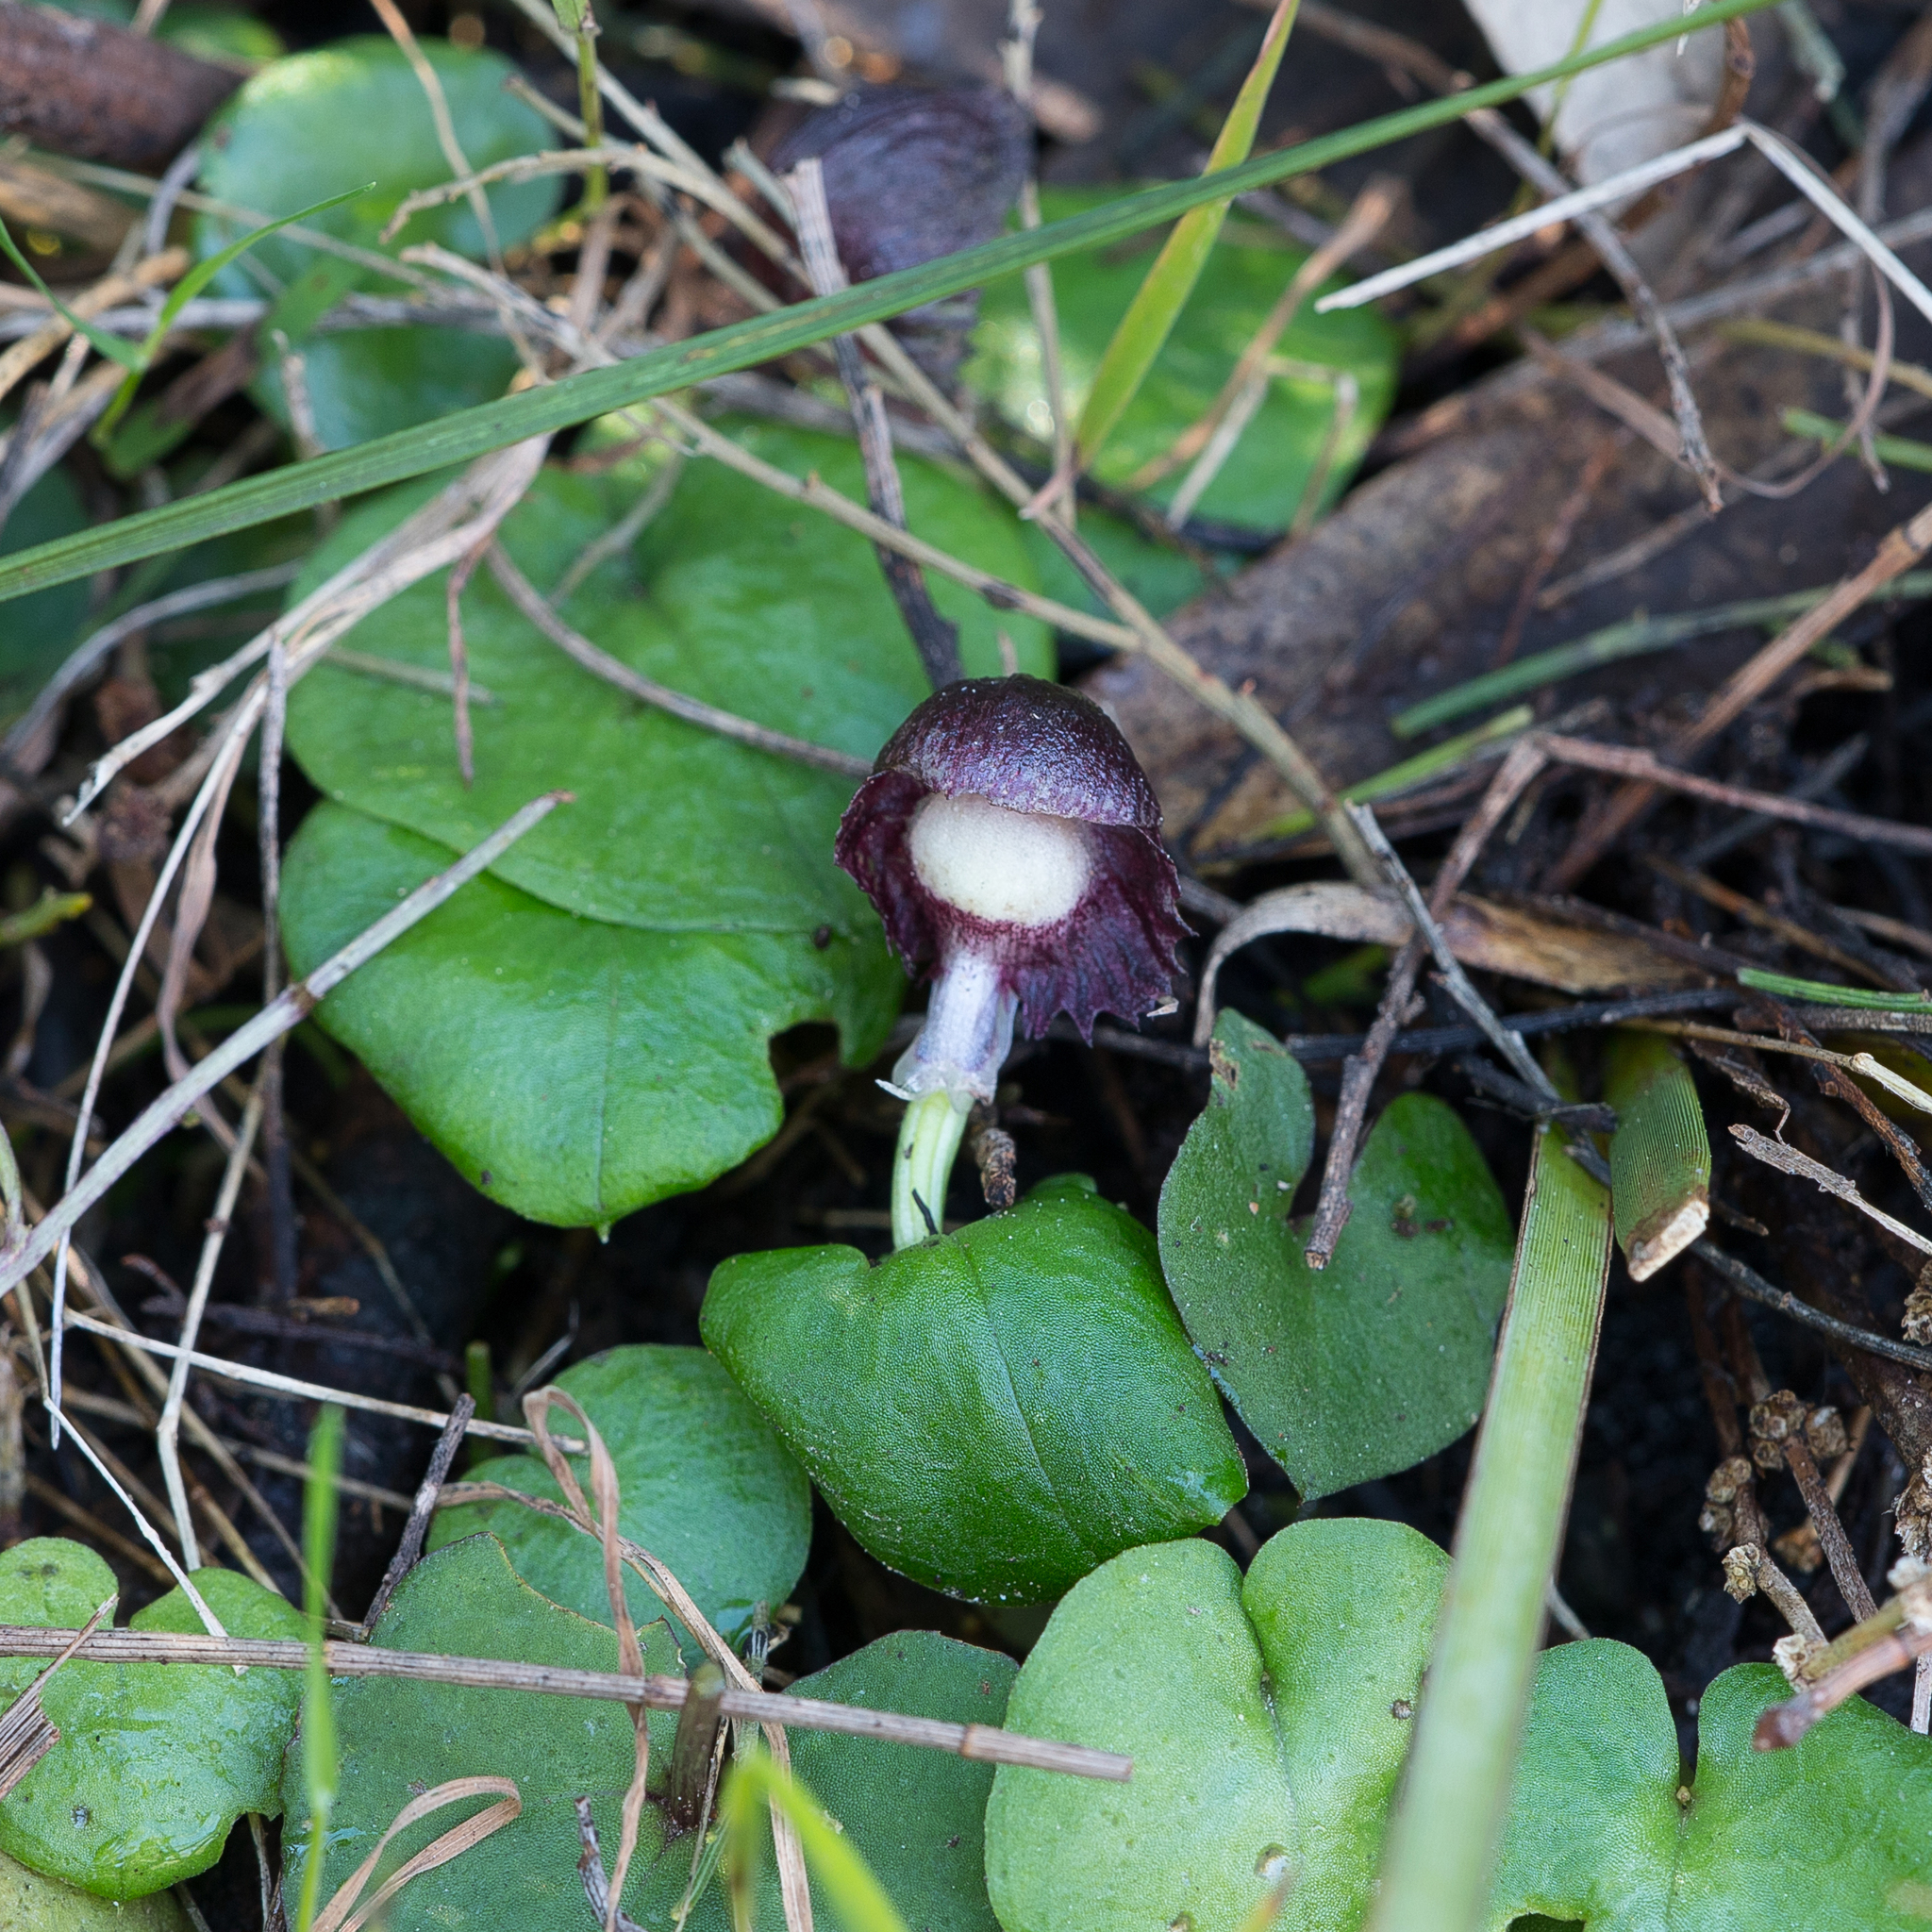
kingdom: Plantae
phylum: Tracheophyta
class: Liliopsida
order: Asparagales
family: Orchidaceae
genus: Corybas
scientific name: Corybas diemenicus
